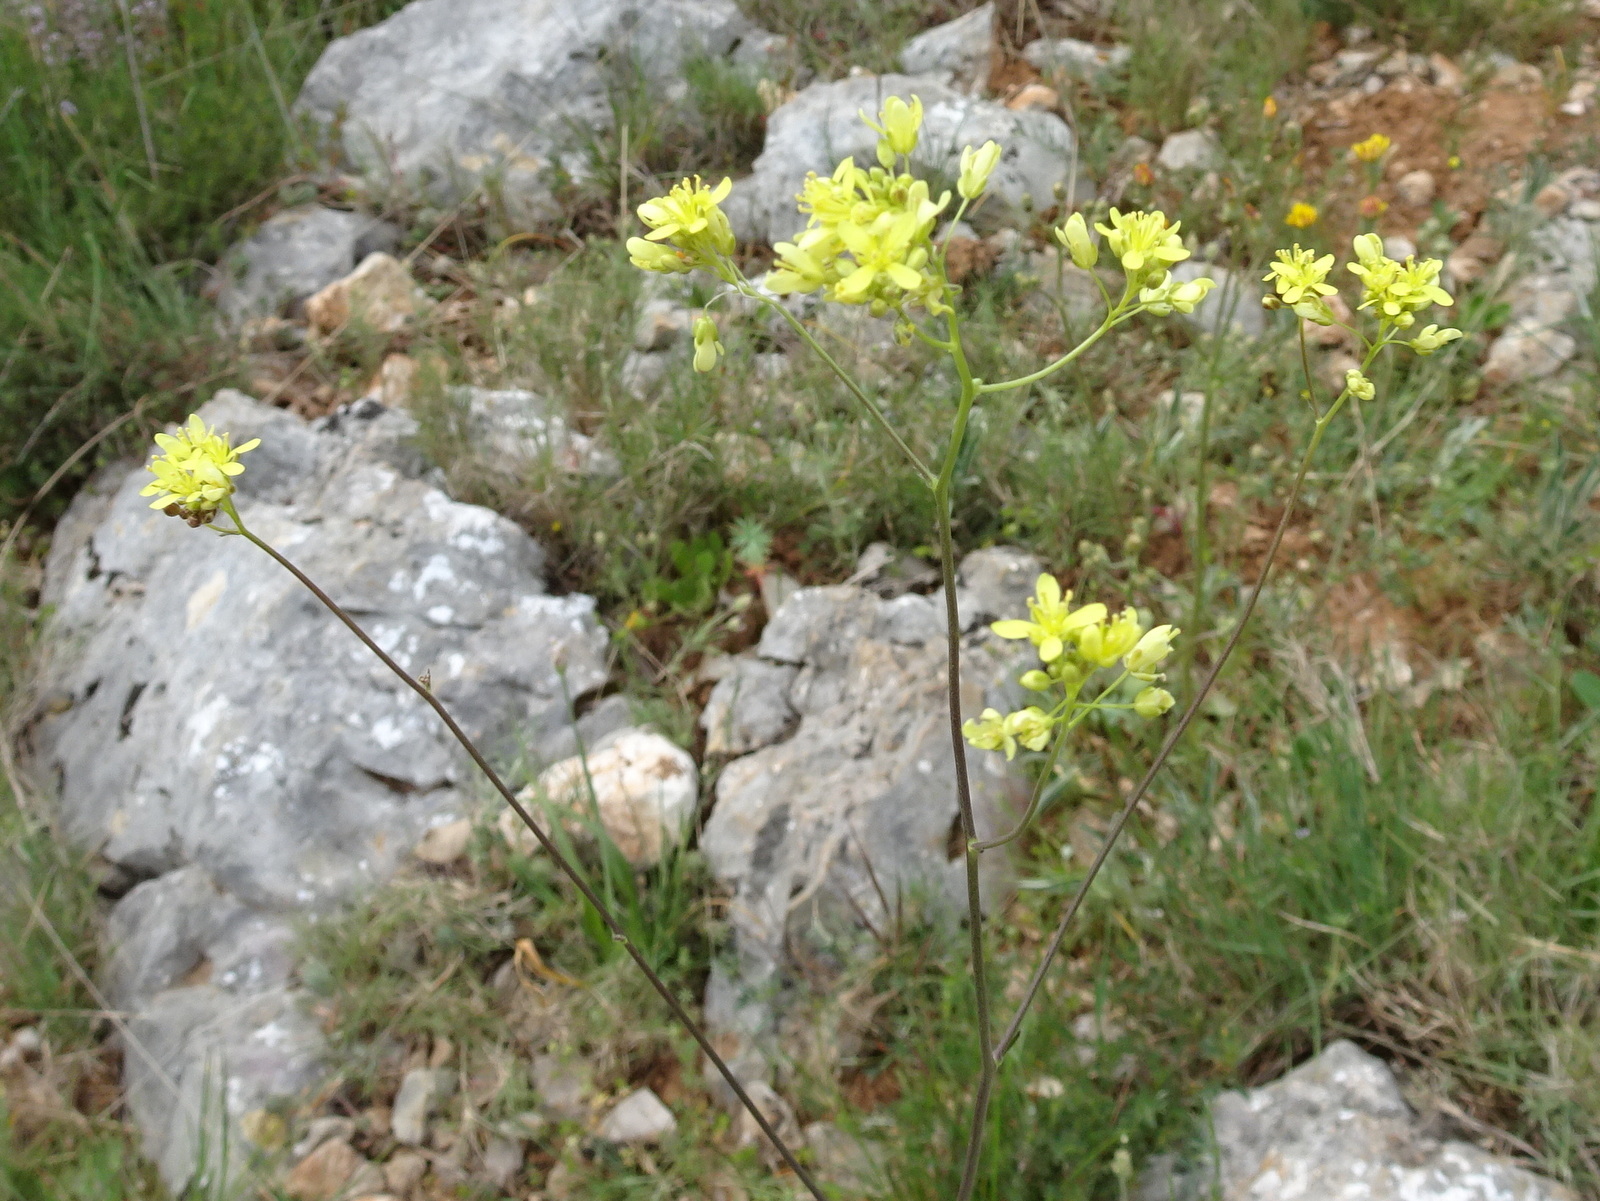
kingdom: Plantae
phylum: Tracheophyta
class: Magnoliopsida
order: Brassicales
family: Brassicaceae
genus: Biscutella
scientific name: Biscutella laevigata
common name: Buckler mustard
